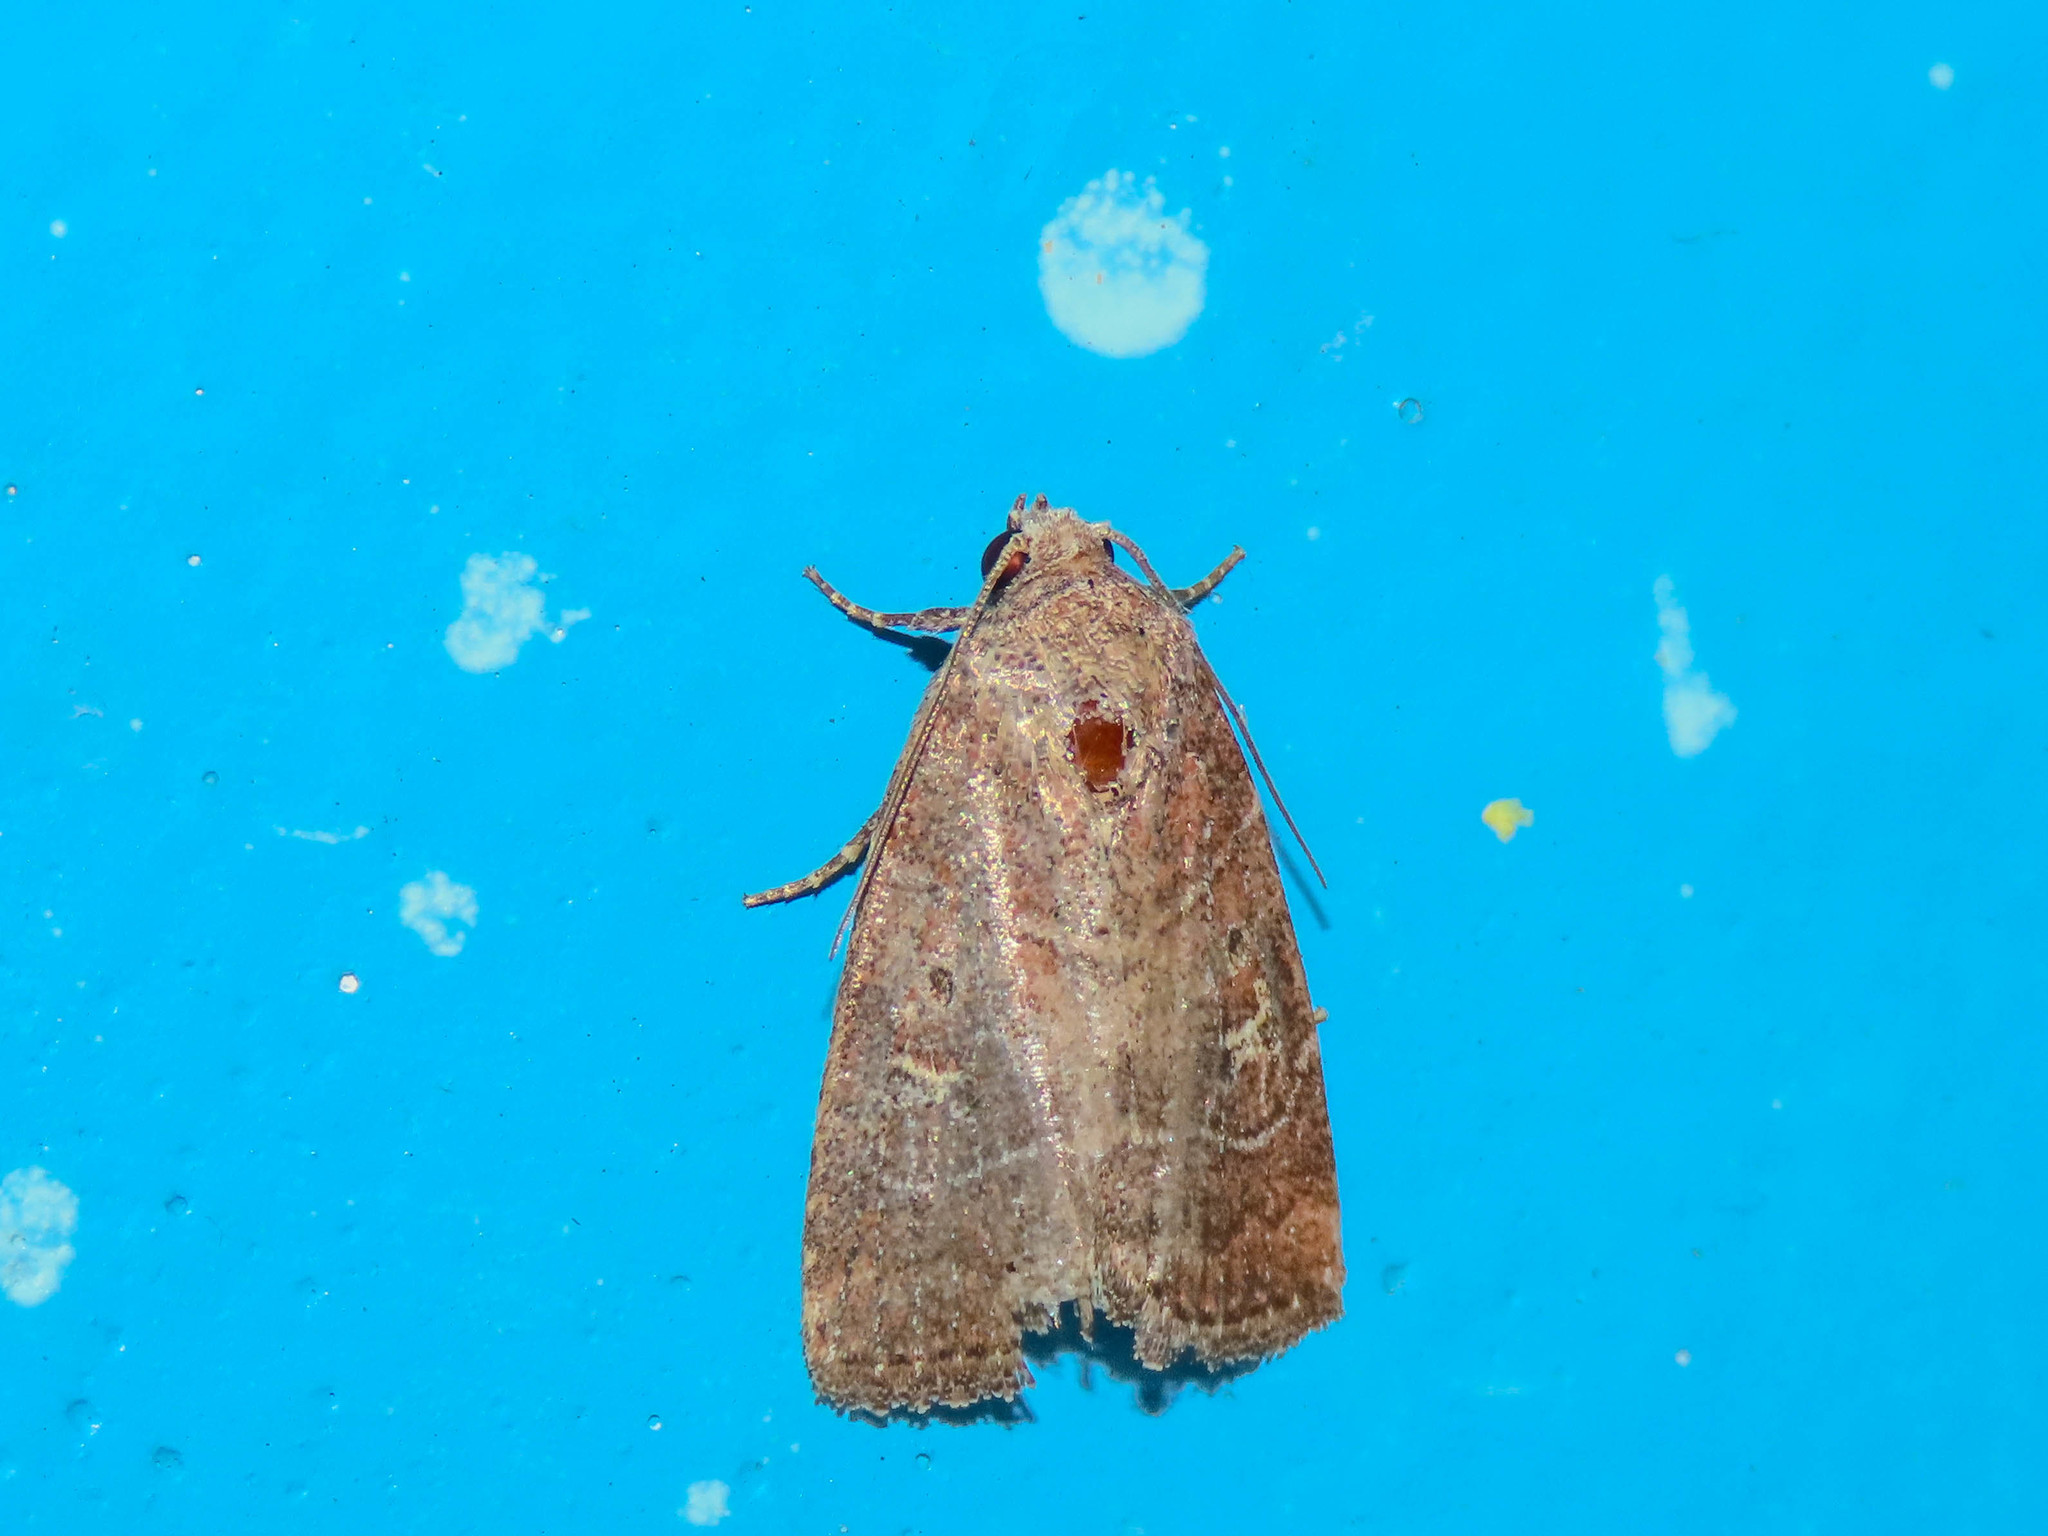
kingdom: Animalia
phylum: Arthropoda
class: Insecta
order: Lepidoptera
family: Noctuidae
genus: Elaphria
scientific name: Elaphria grata
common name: Grateful midget moth
